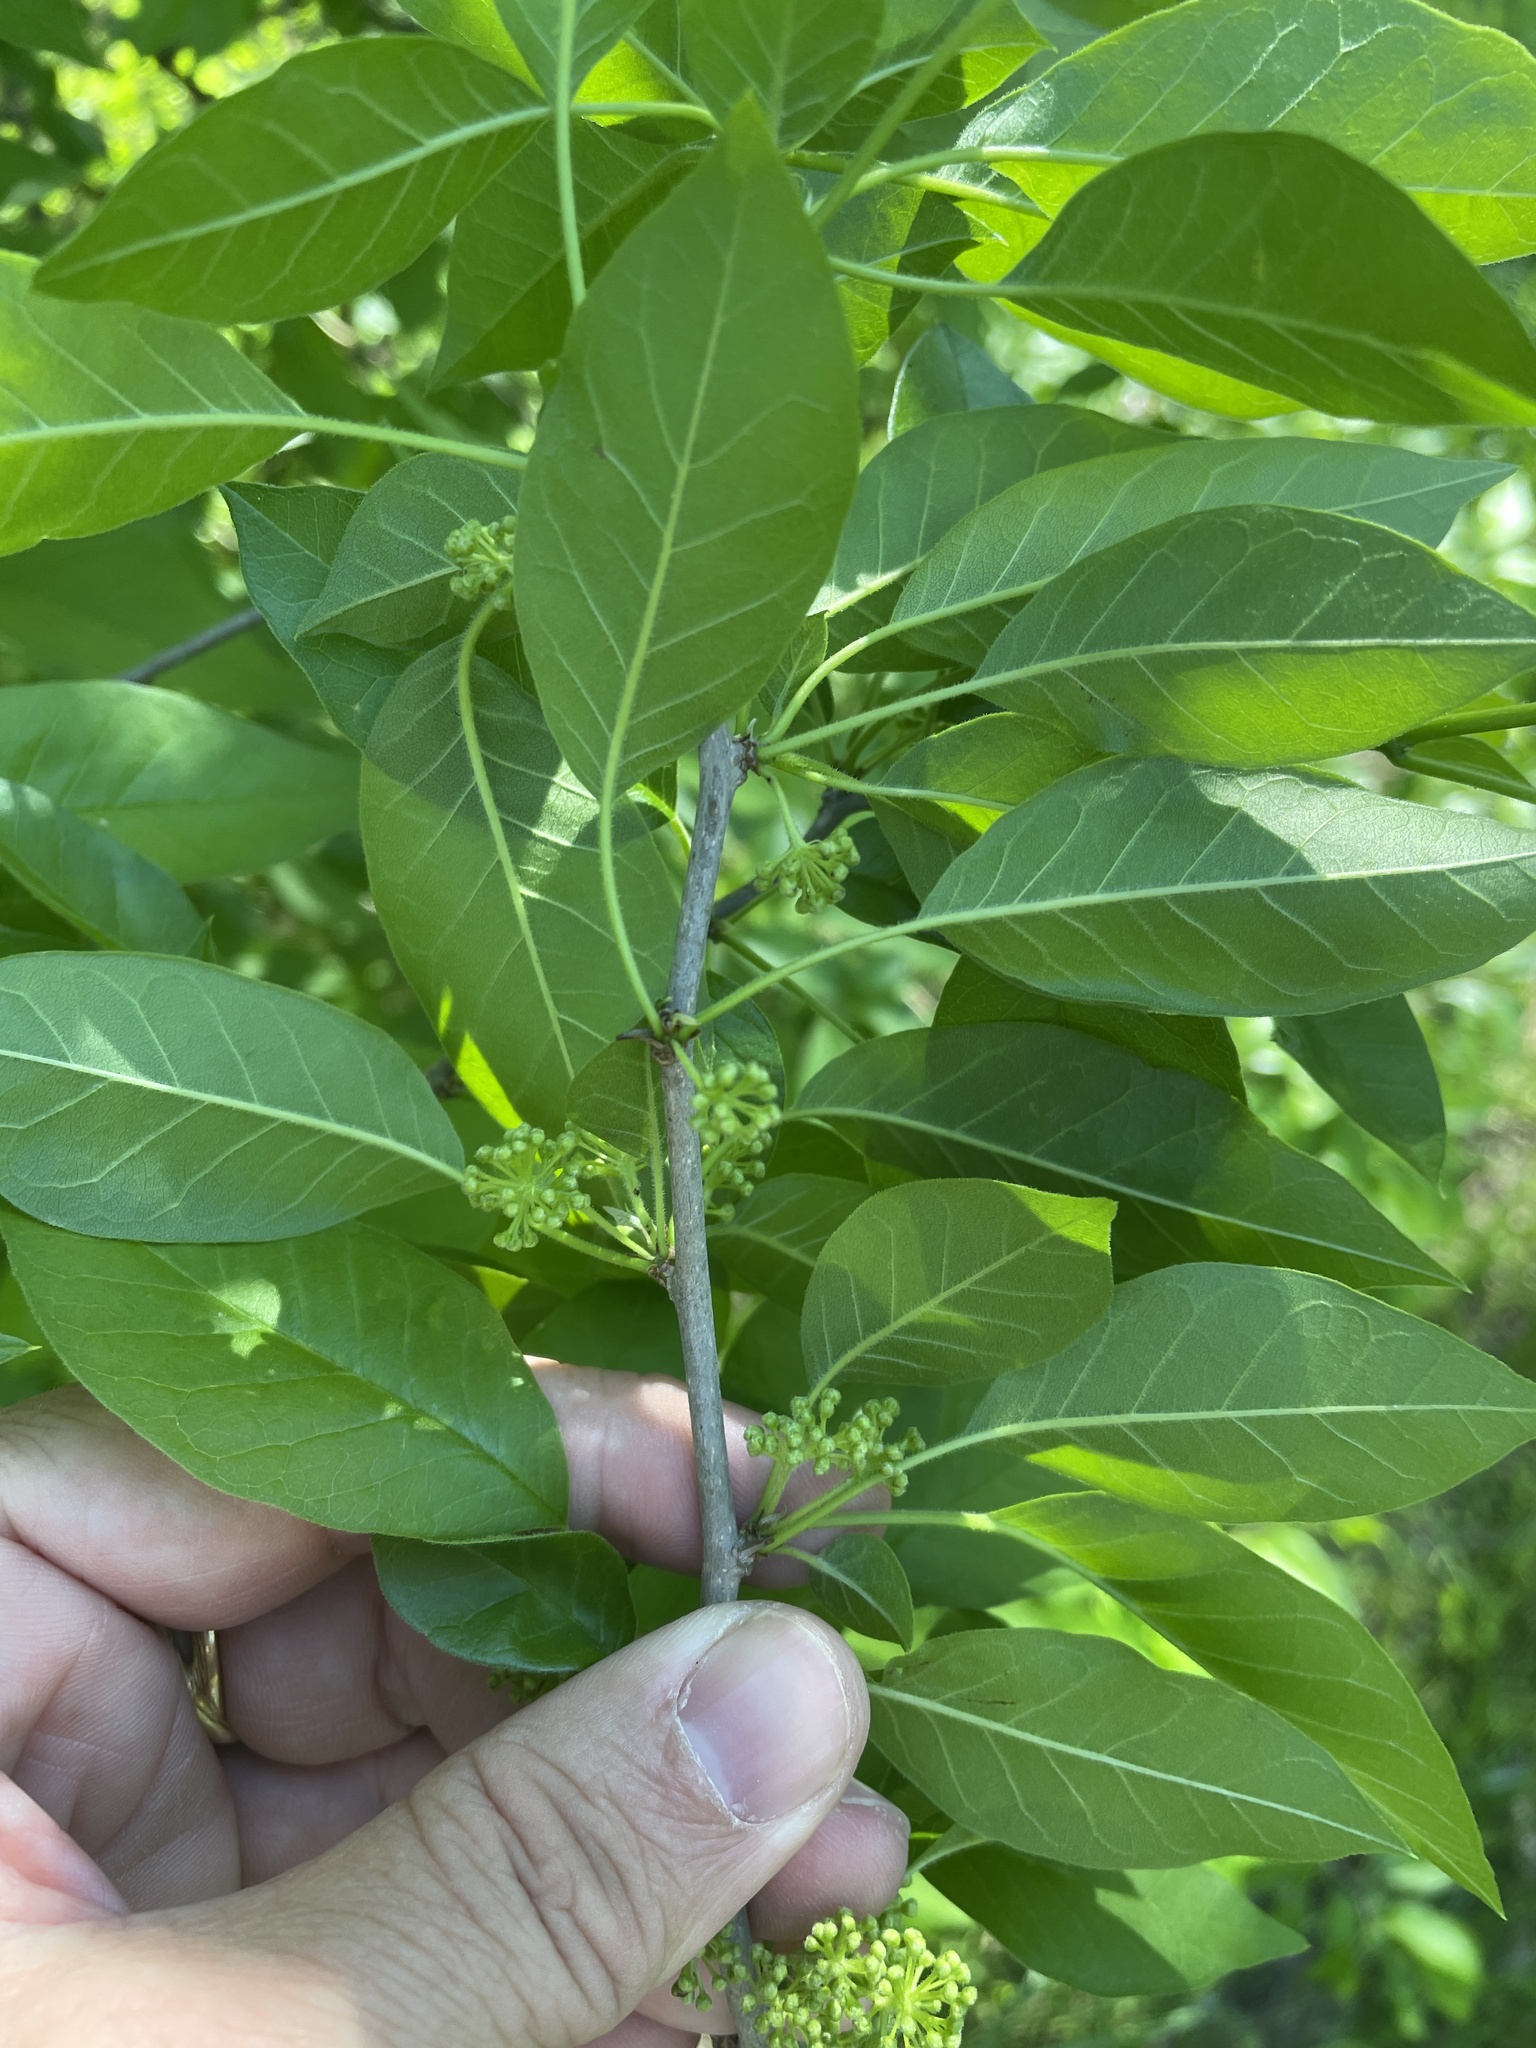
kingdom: Plantae
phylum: Tracheophyta
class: Magnoliopsida
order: Rosales
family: Moraceae
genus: Maclura
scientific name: Maclura pomifera
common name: Osage-orange
